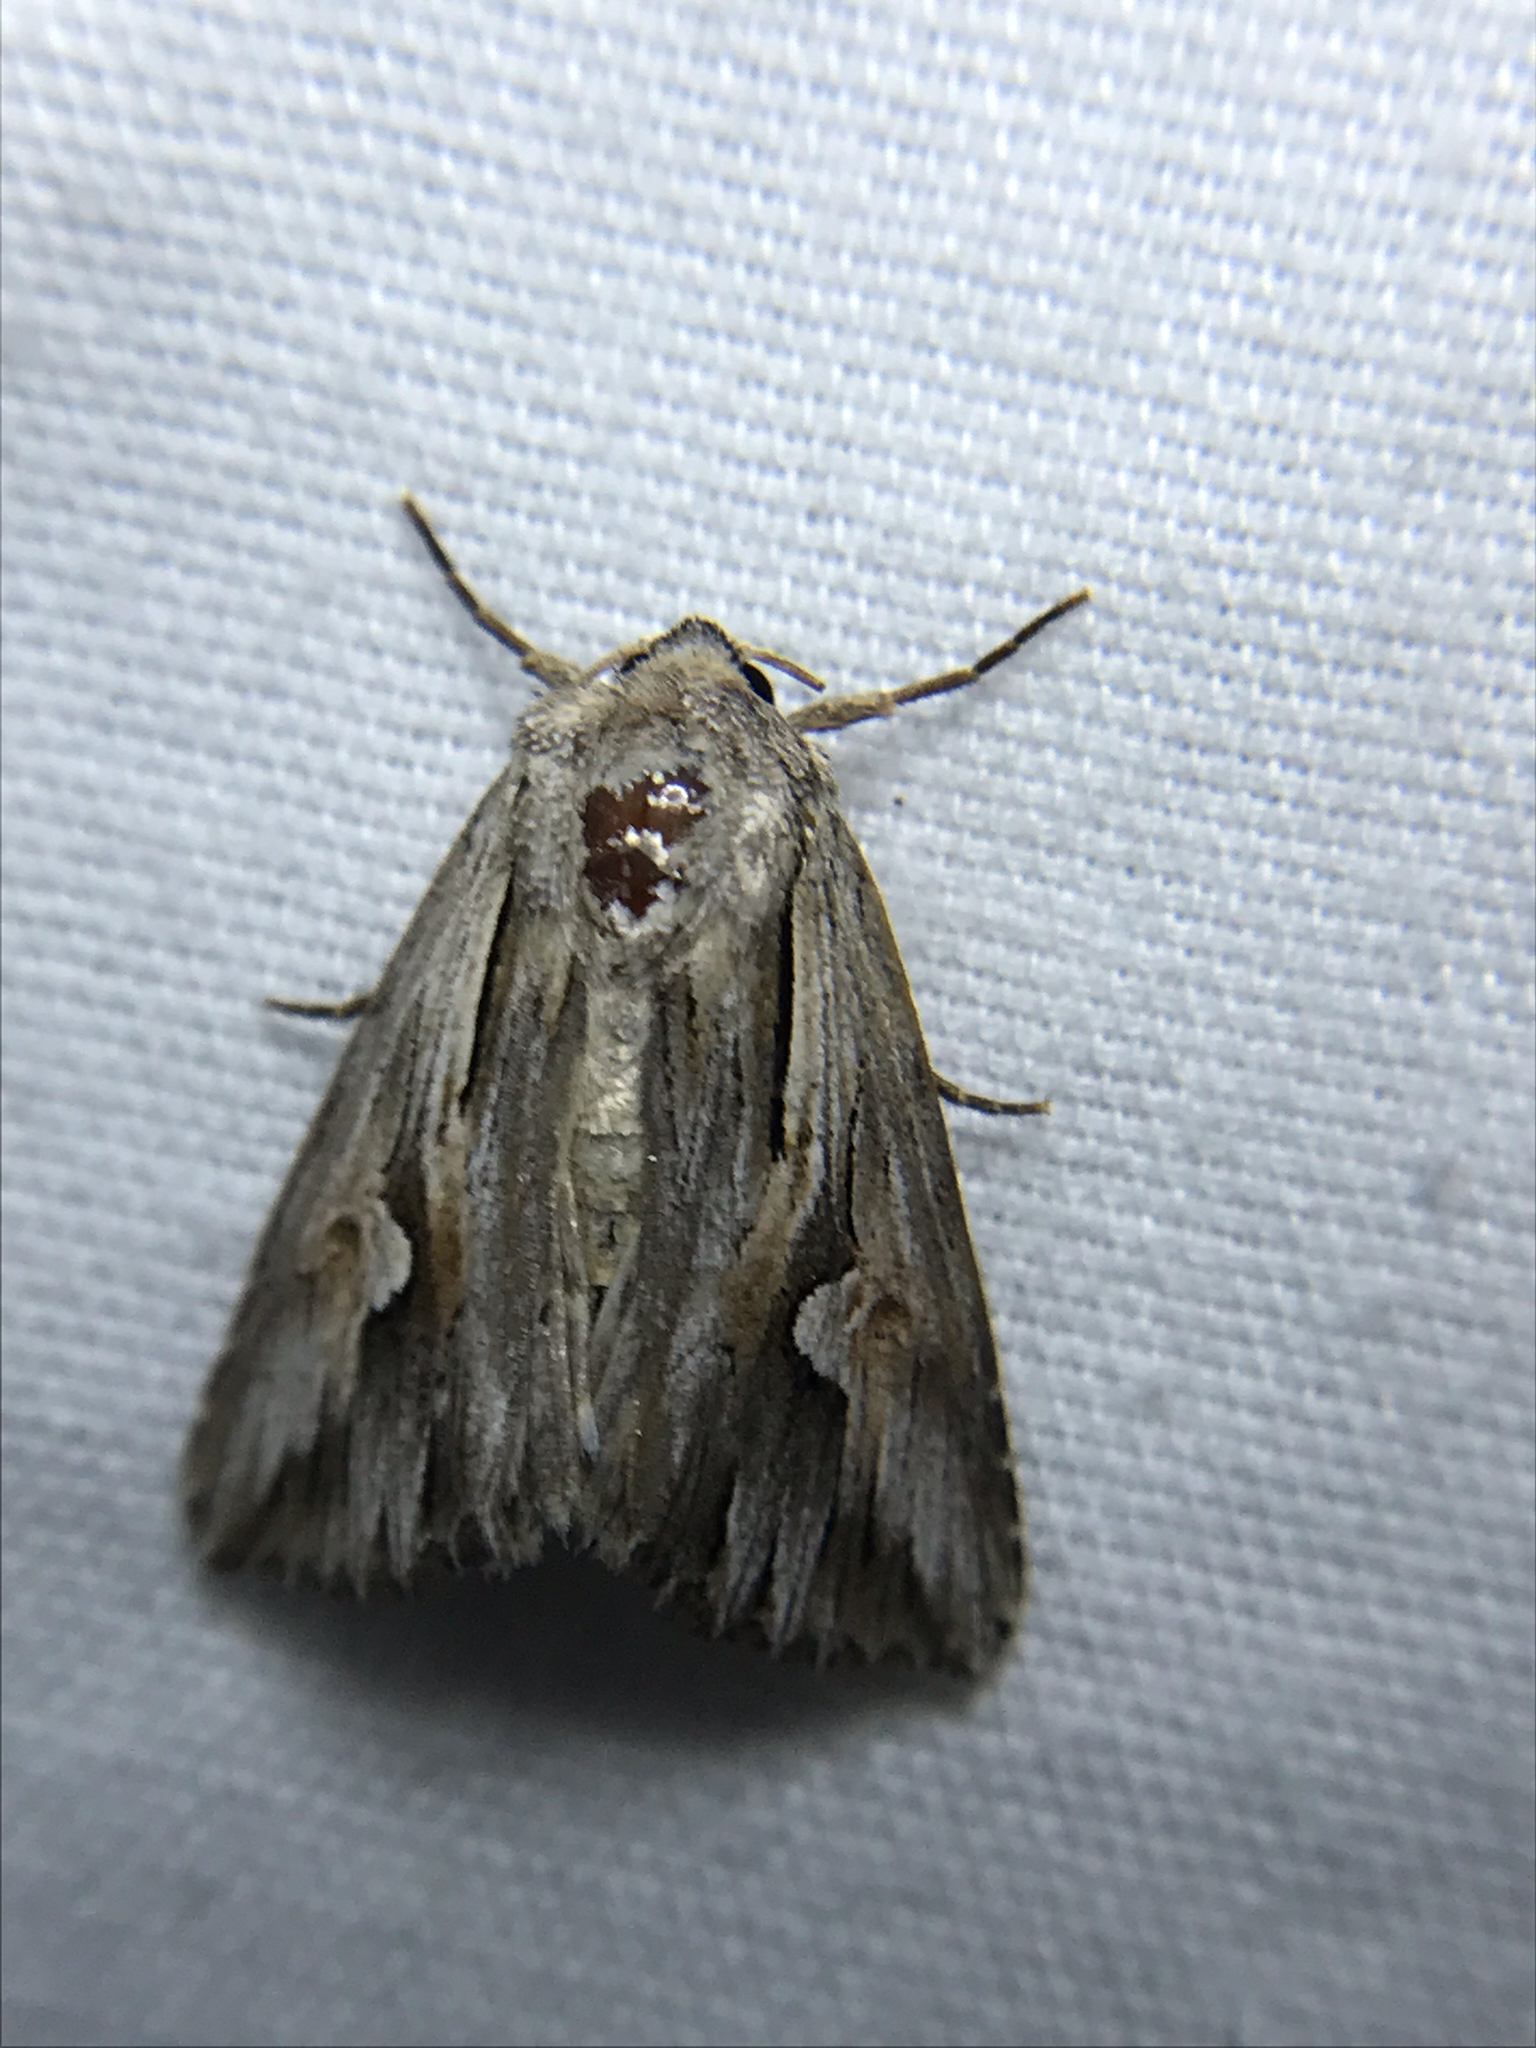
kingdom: Animalia
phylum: Arthropoda
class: Insecta
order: Lepidoptera
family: Noctuidae
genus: Nedra
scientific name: Nedra ramosula
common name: Gray half-spot
